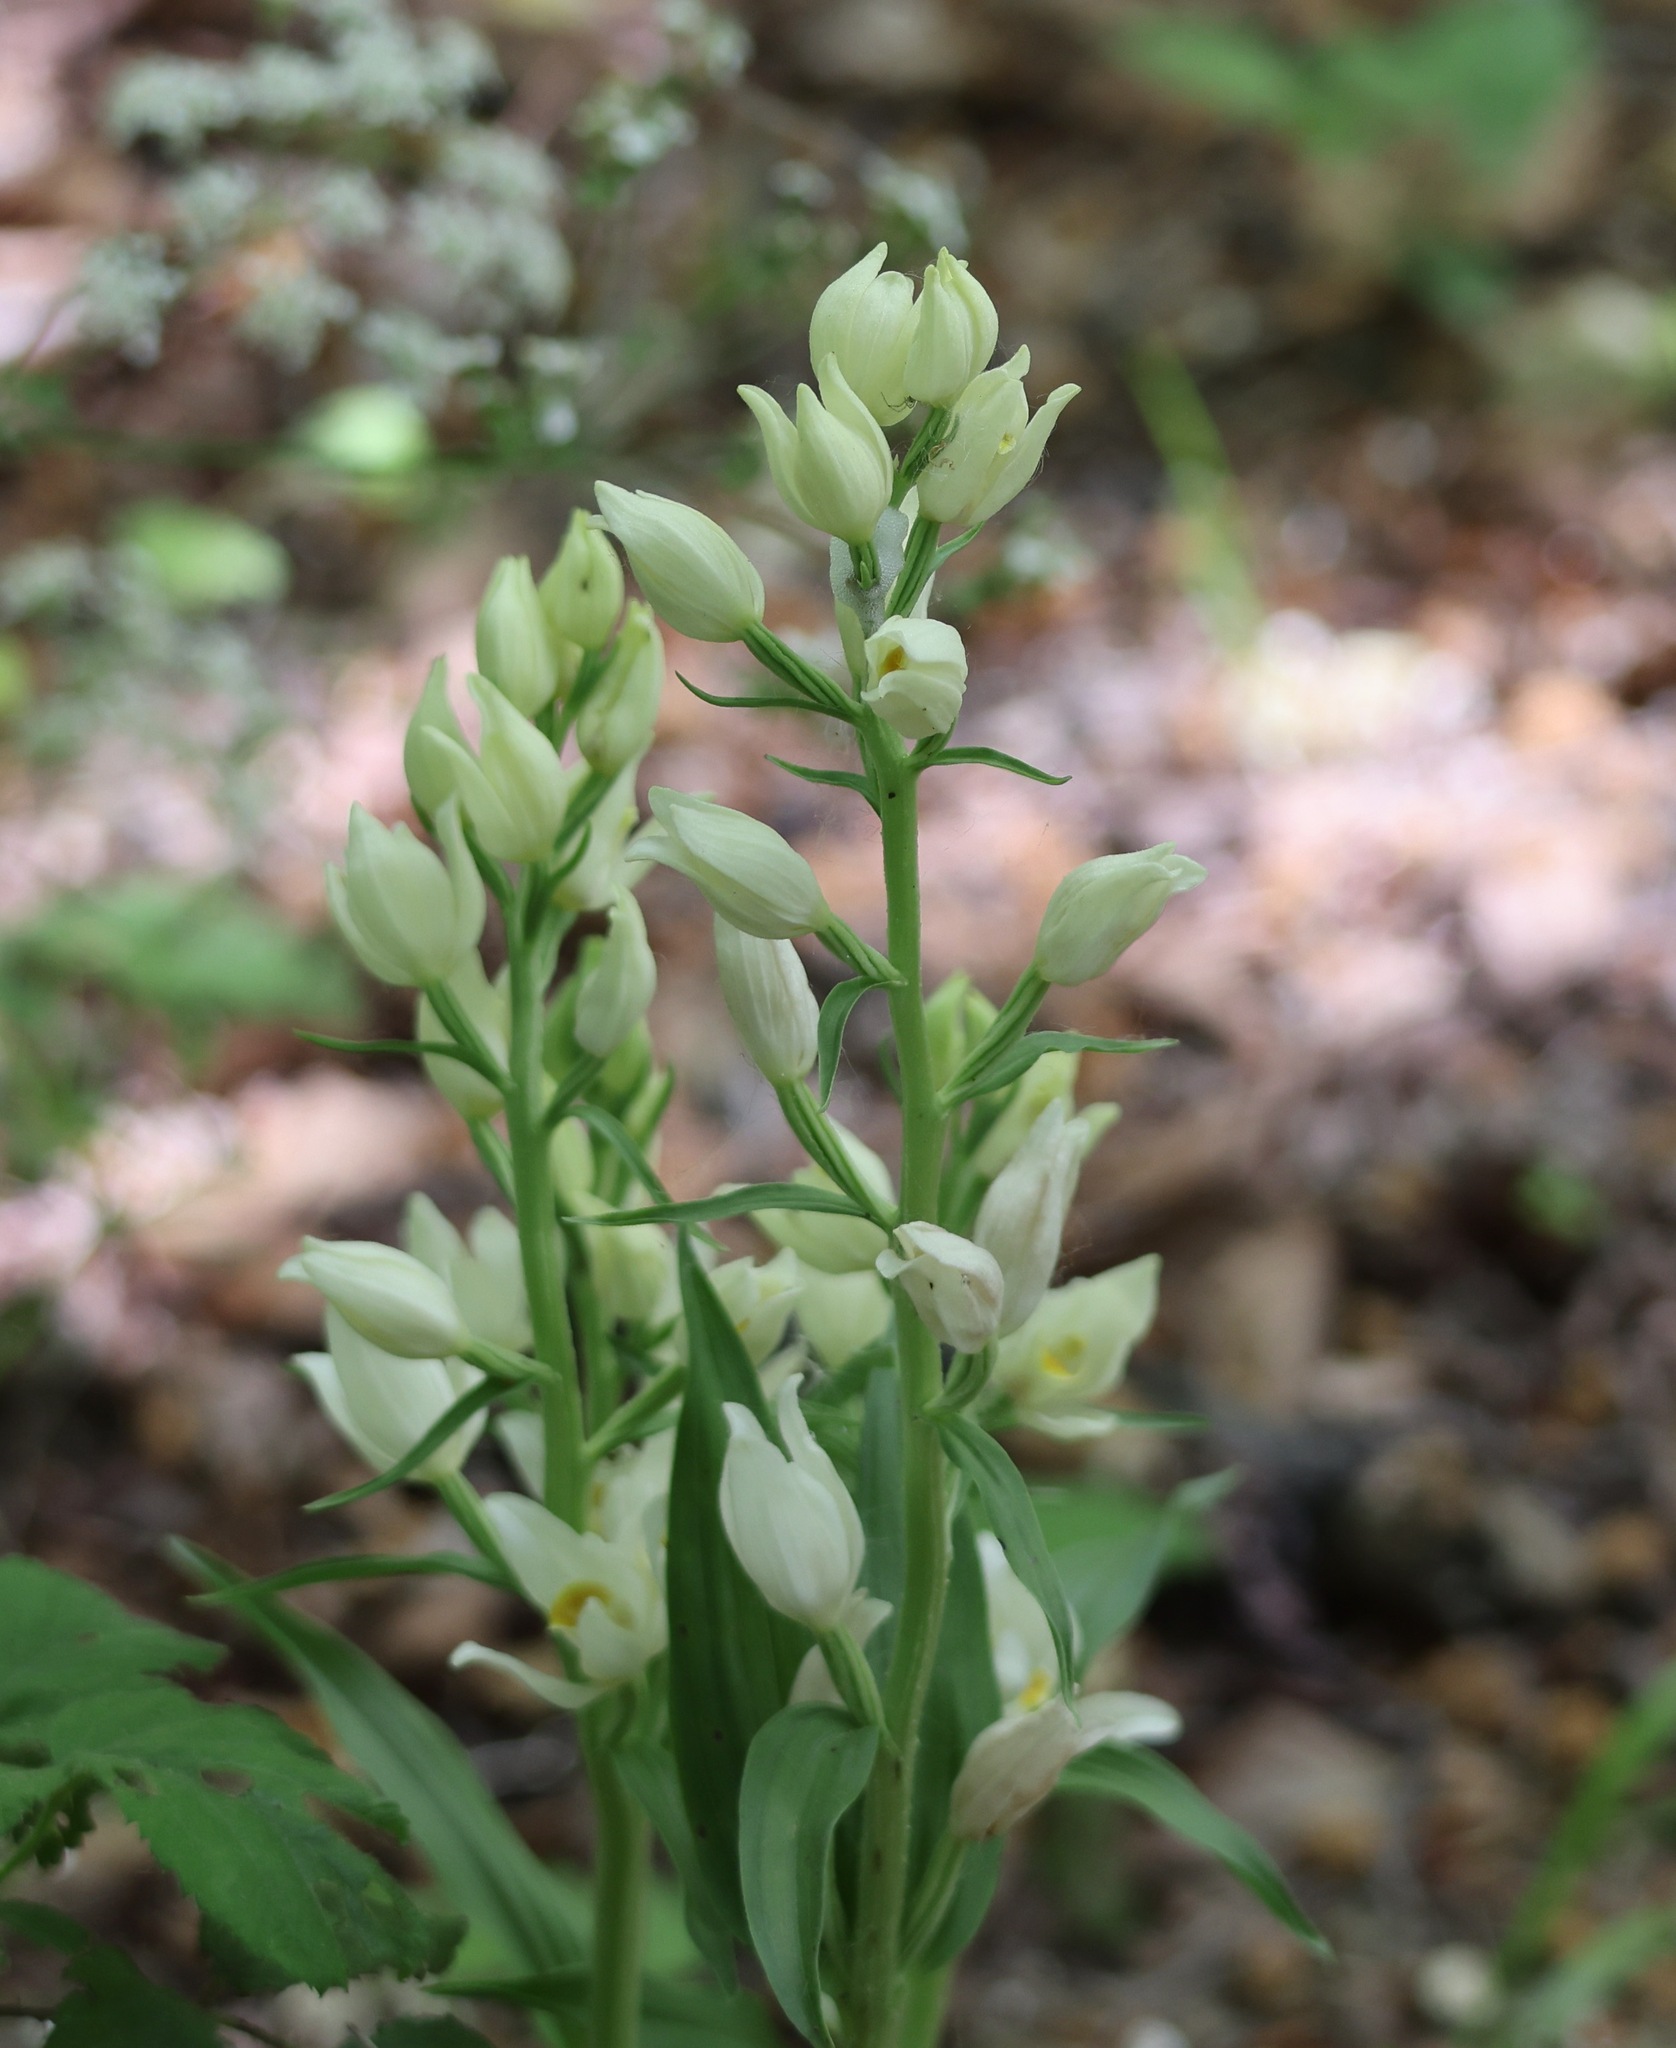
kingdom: Plantae
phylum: Tracheophyta
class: Liliopsida
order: Asparagales
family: Orchidaceae
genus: Cephalanthera
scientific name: Cephalanthera damasonium
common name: White helleborine
